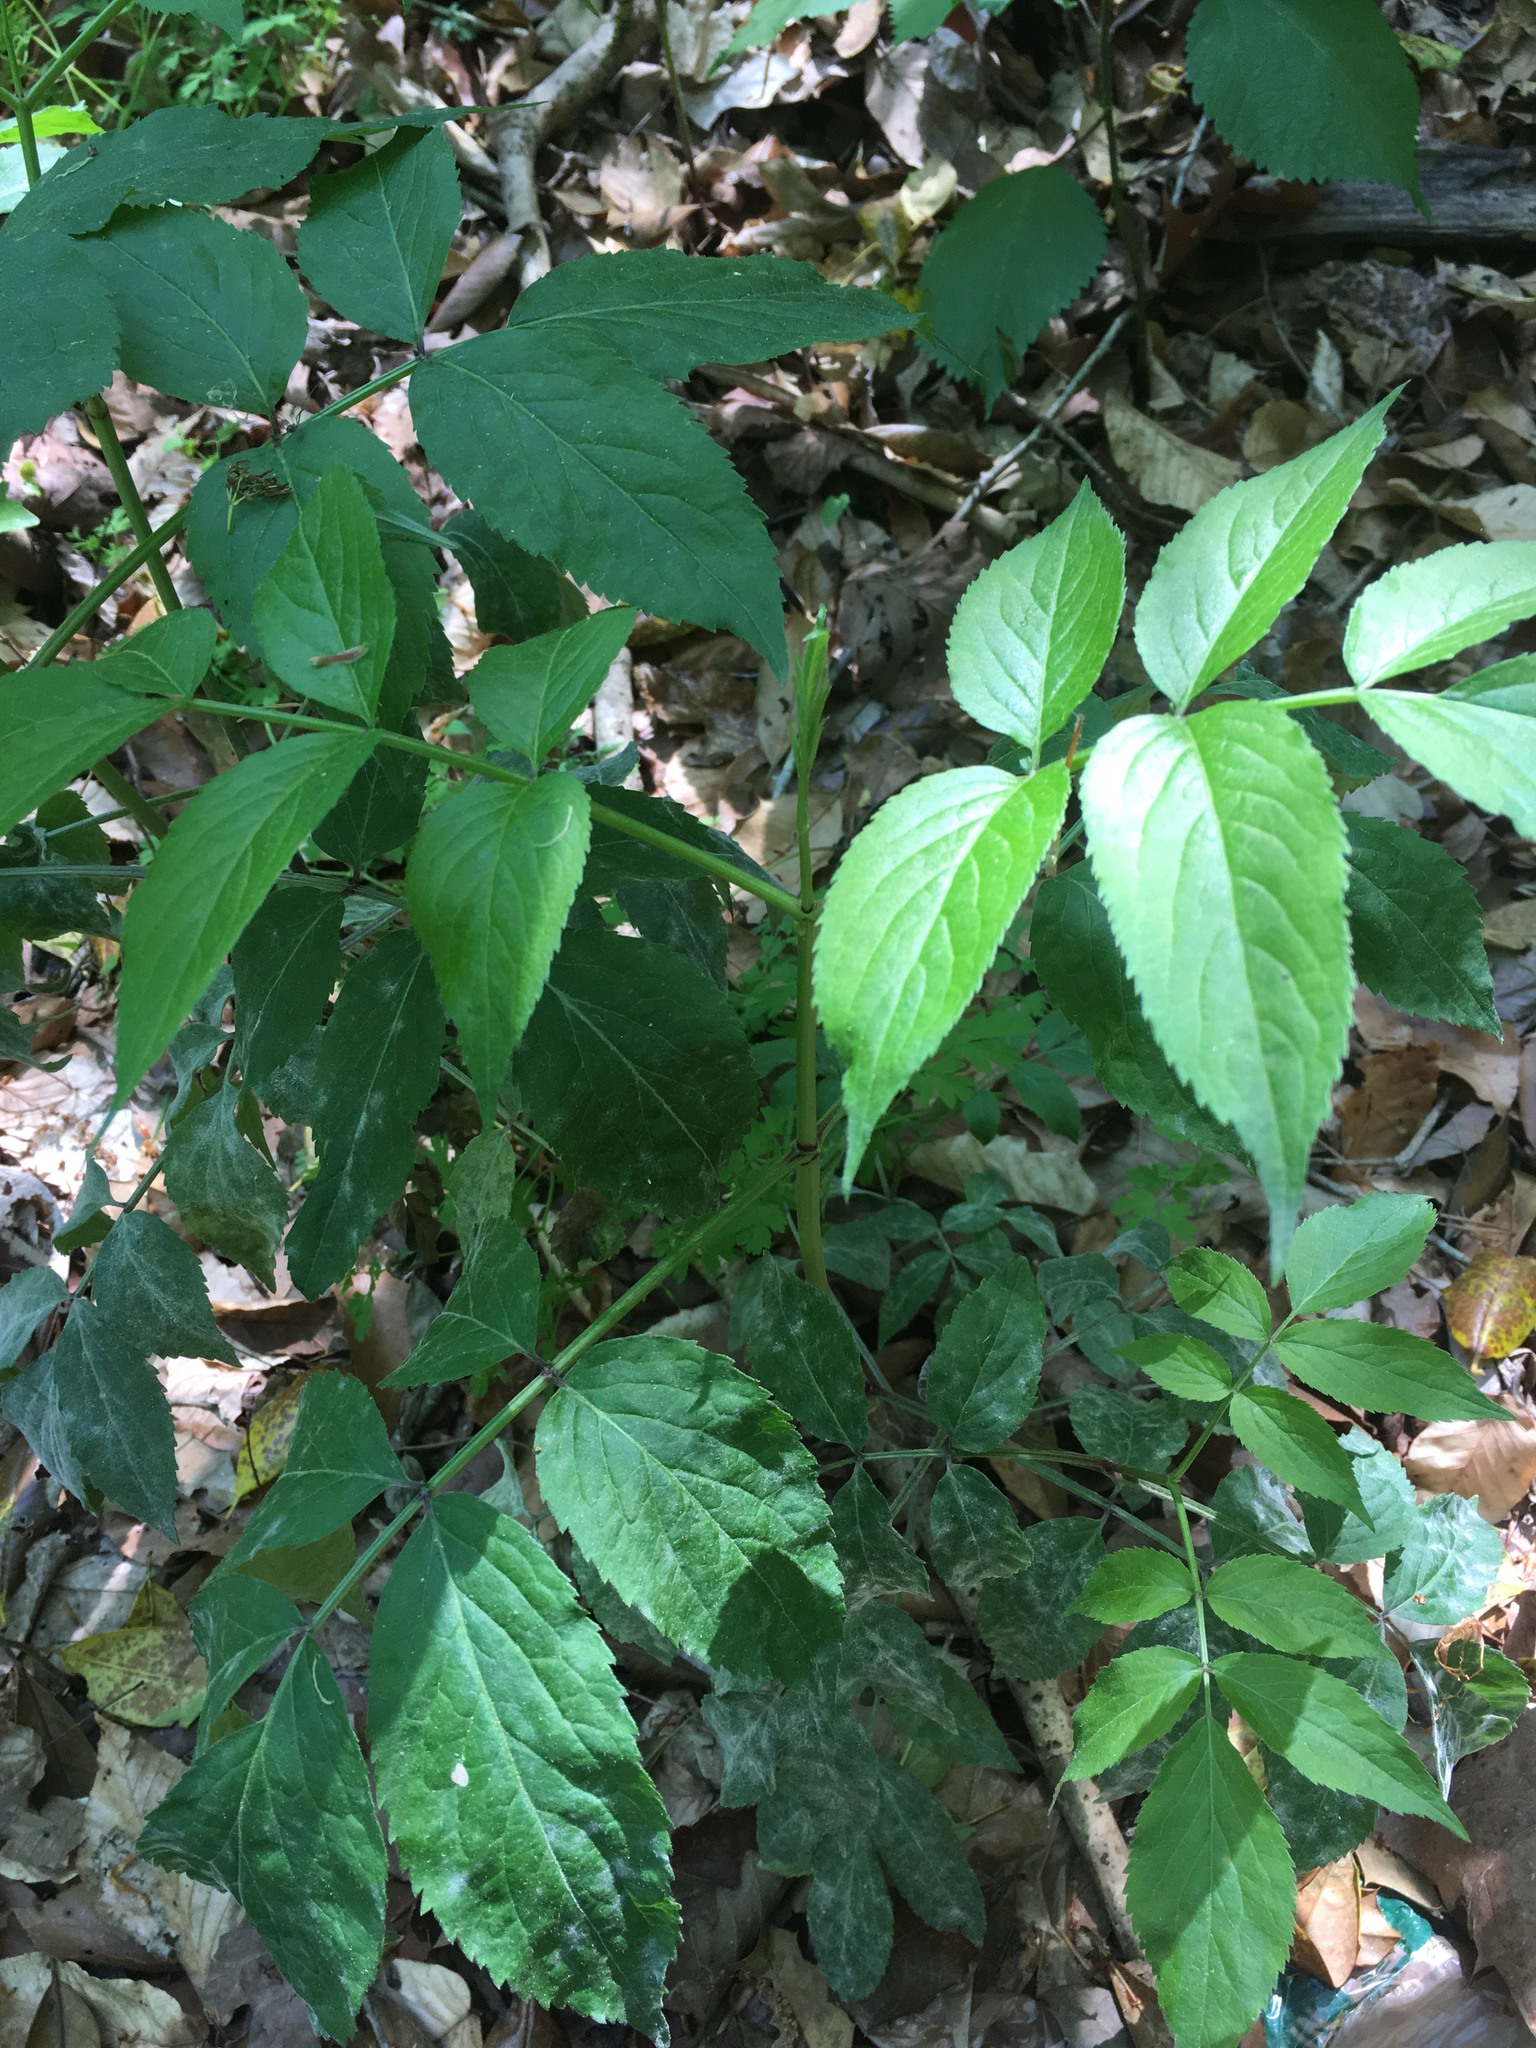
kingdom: Plantae
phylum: Tracheophyta
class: Magnoliopsida
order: Dipsacales
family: Viburnaceae
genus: Sambucus
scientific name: Sambucus canadensis
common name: American elder
